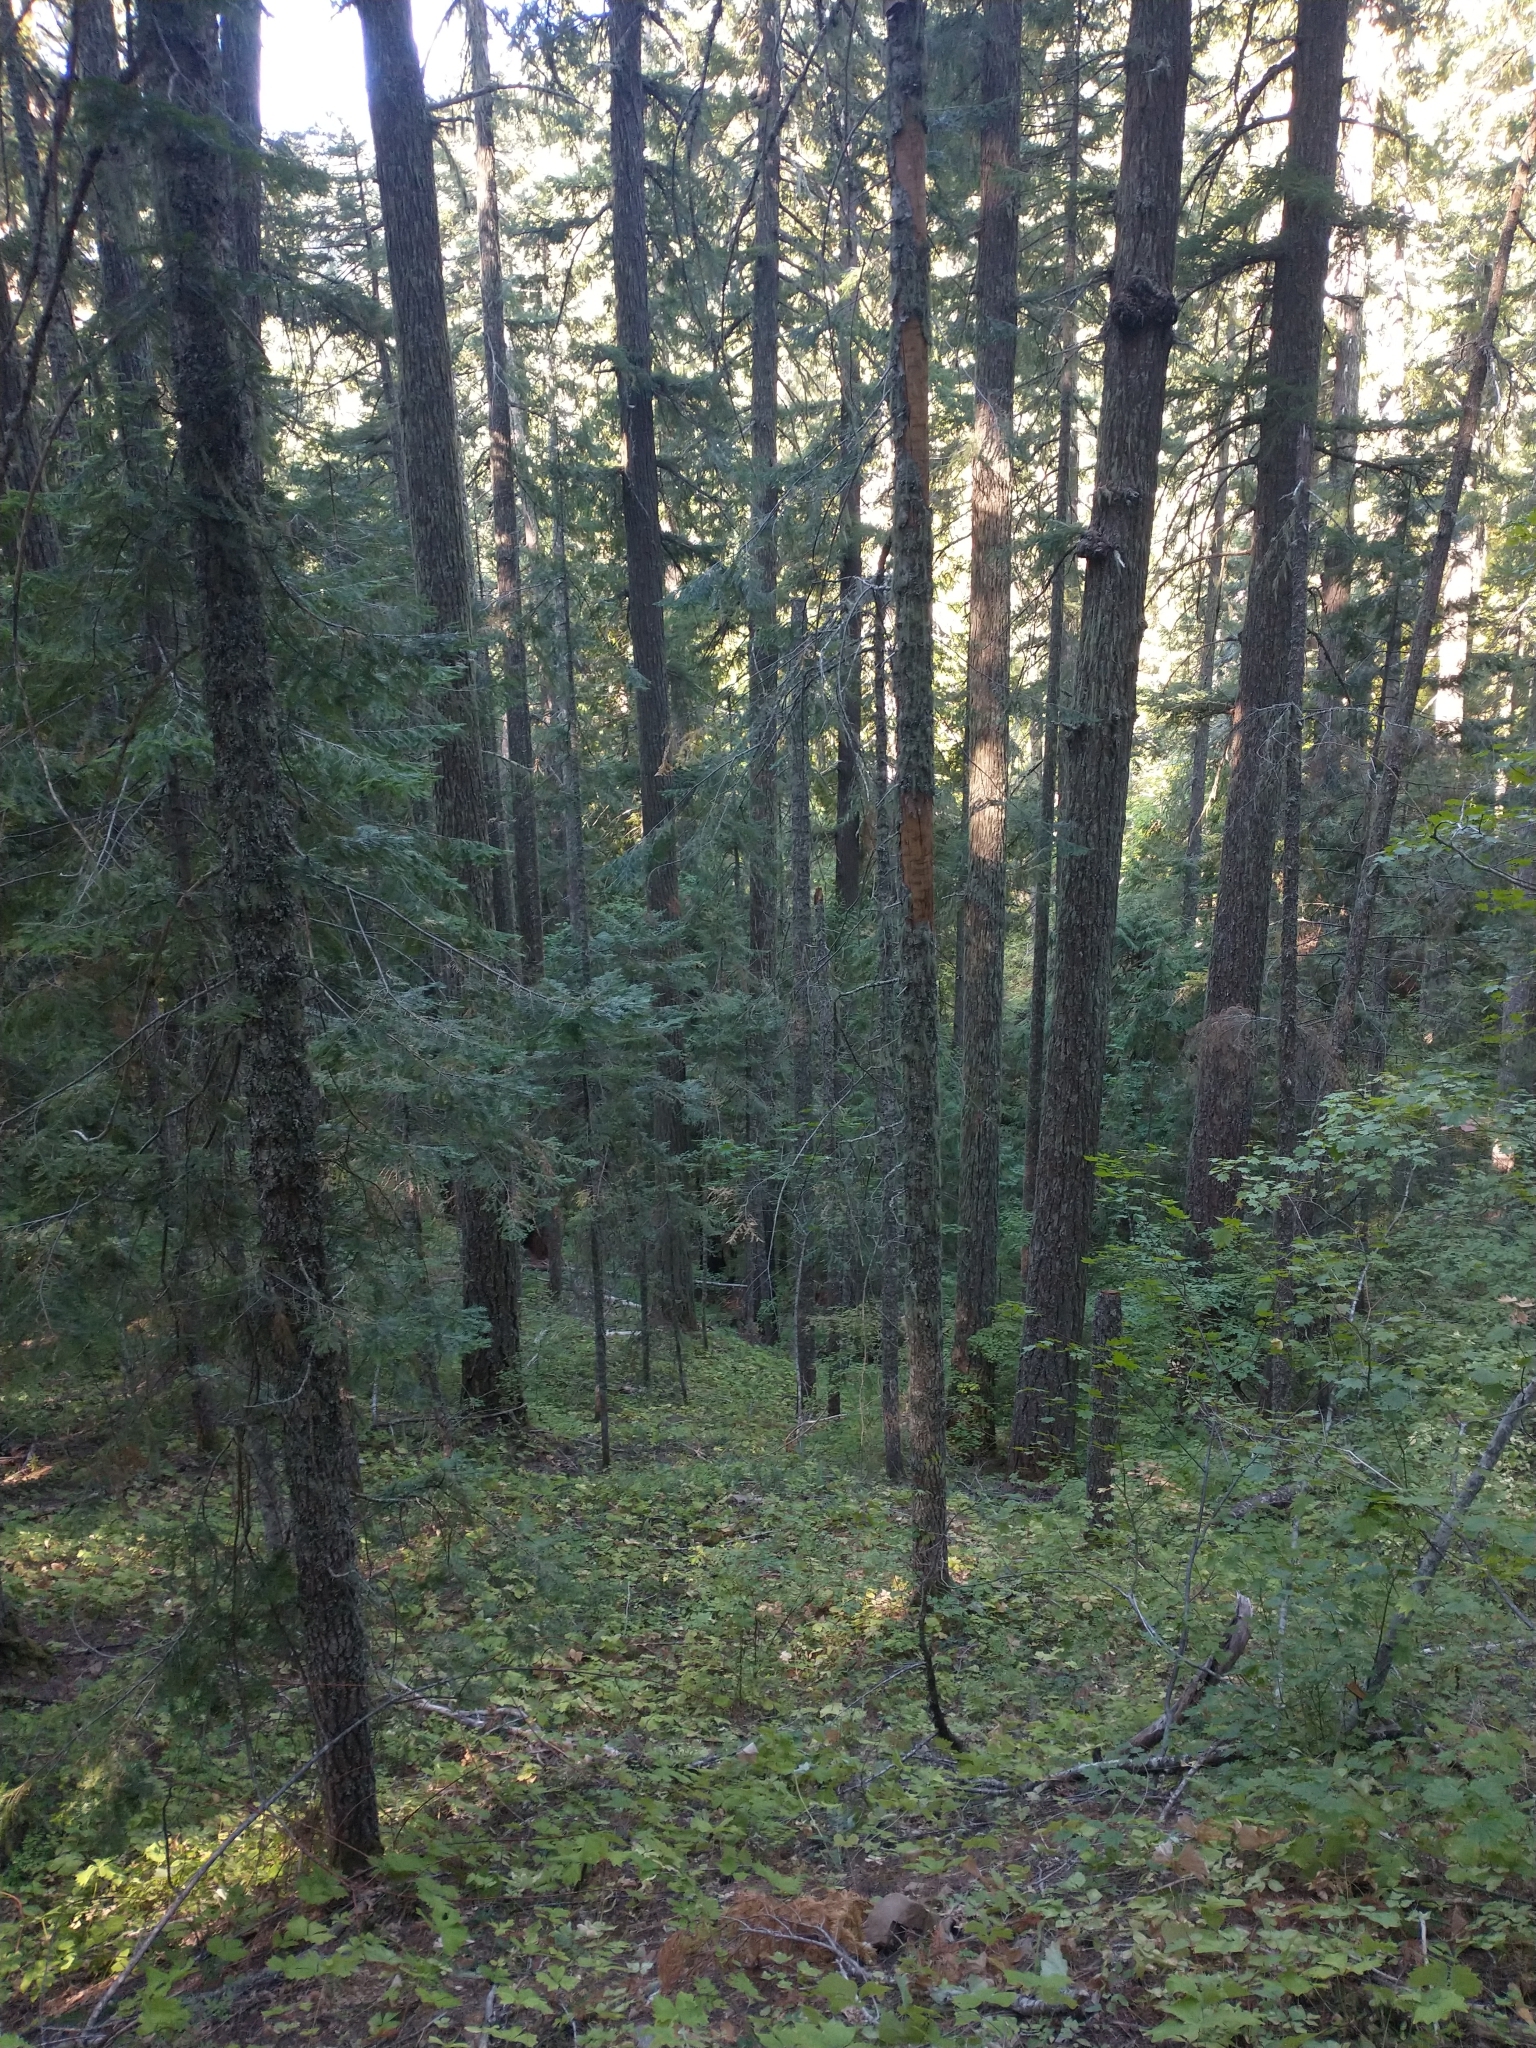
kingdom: Plantae
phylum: Tracheophyta
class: Magnoliopsida
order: Sapindales
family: Sapindaceae
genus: Acer
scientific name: Acer circinatum
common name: Vine maple
